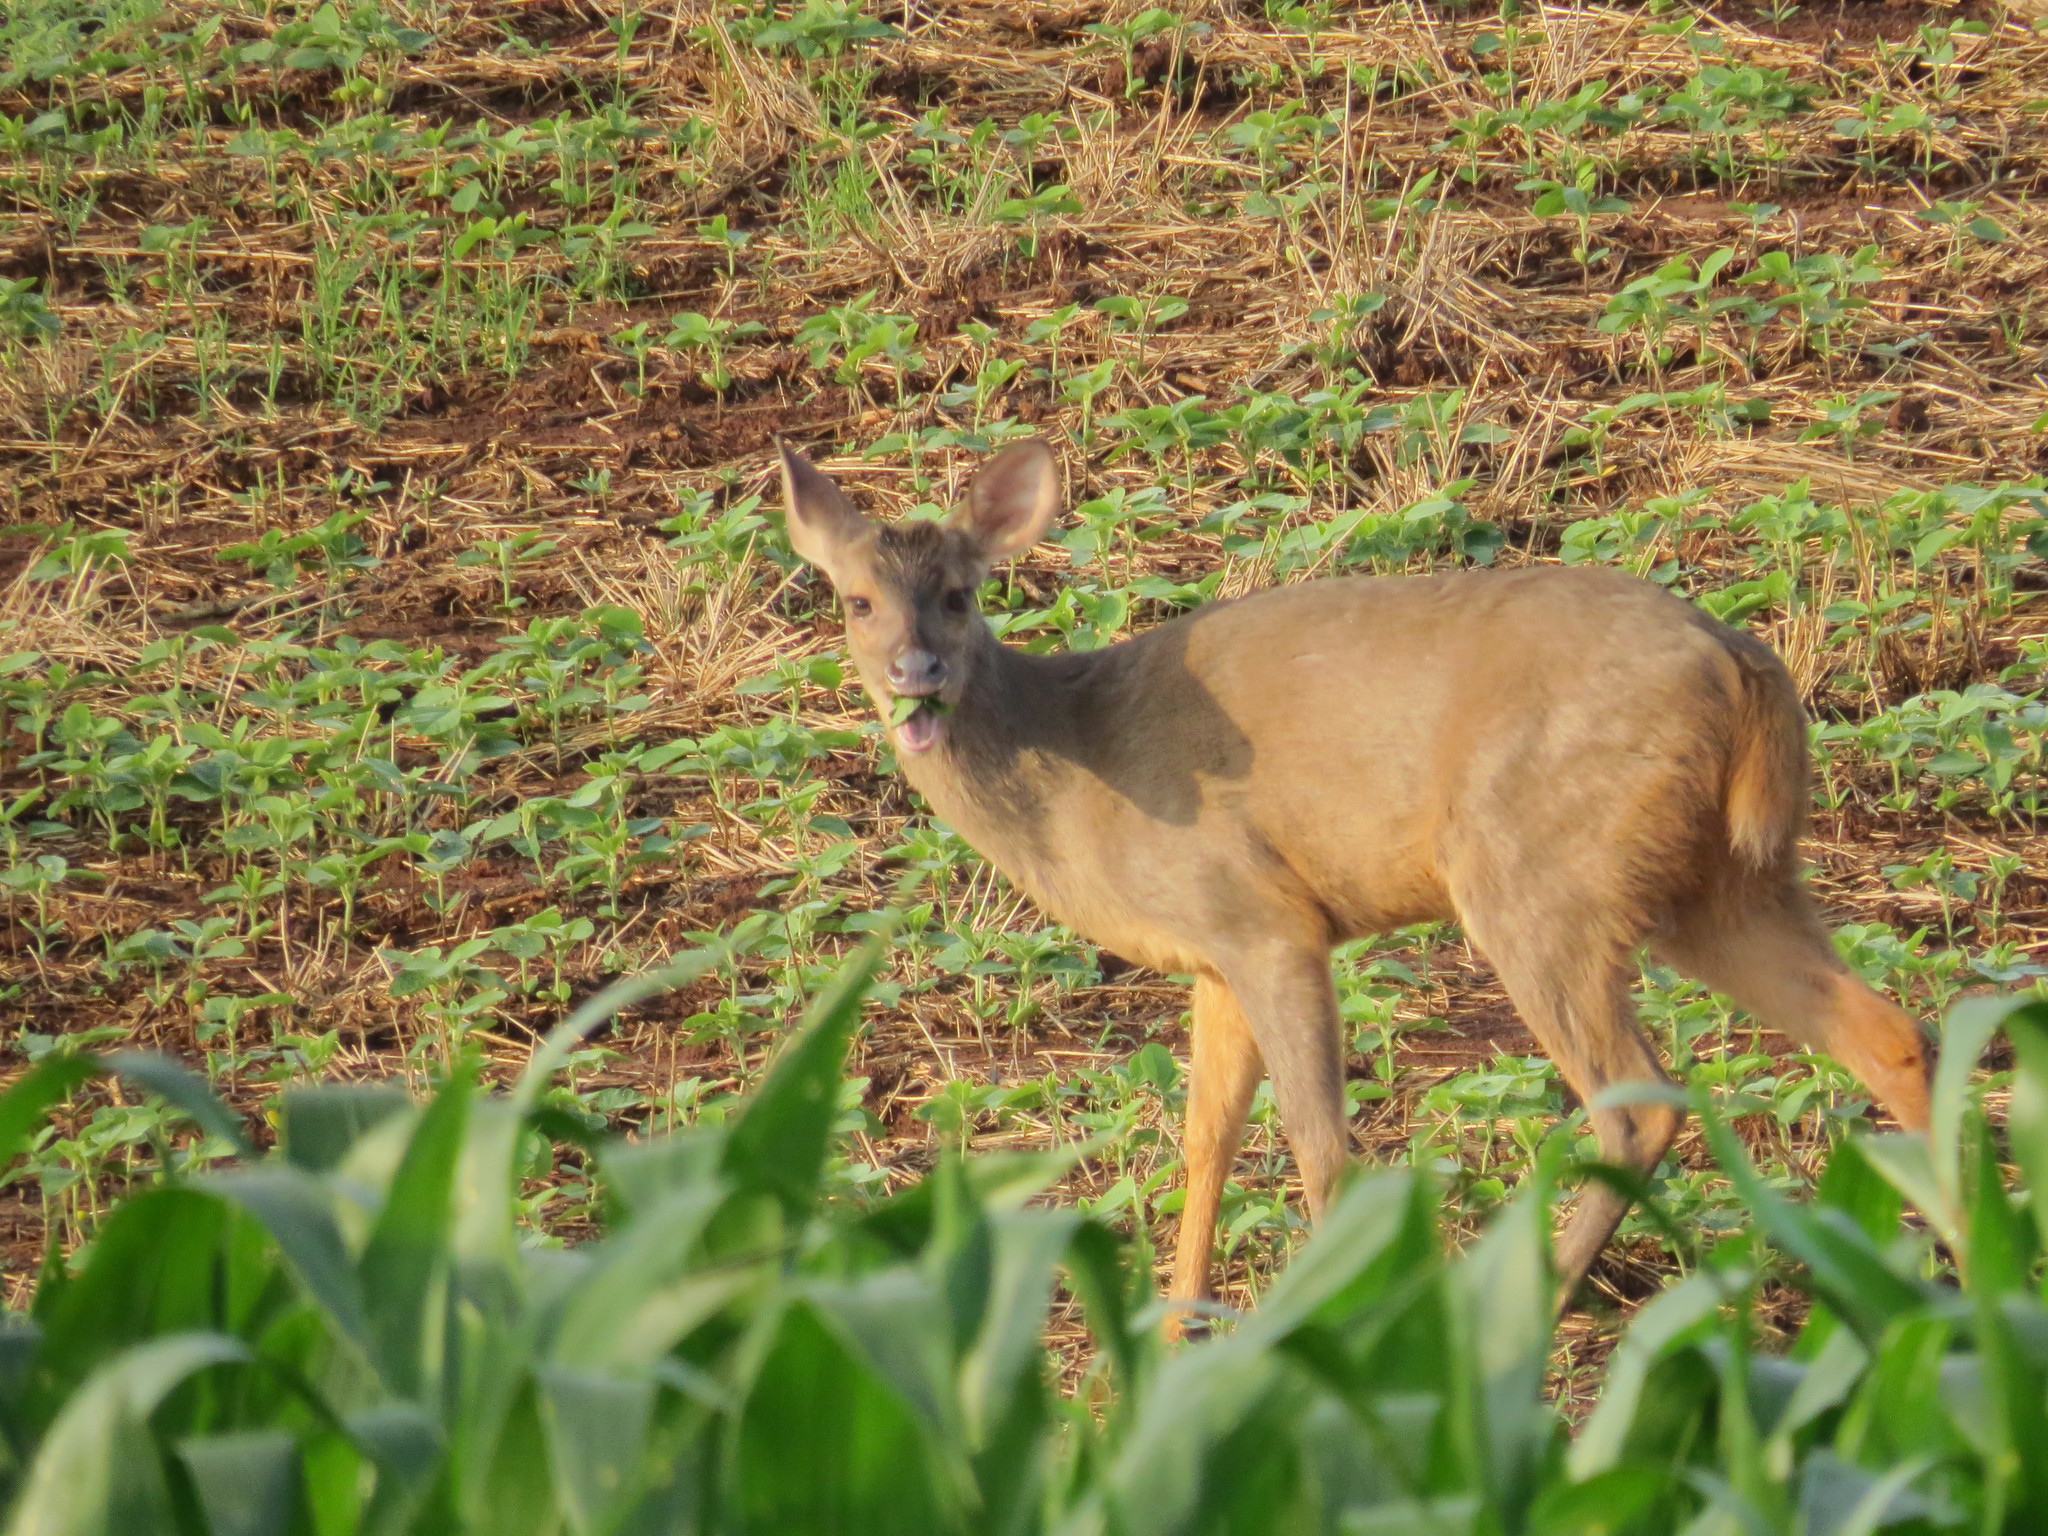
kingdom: Animalia
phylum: Chordata
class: Mammalia
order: Artiodactyla
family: Cervidae
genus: Mazama
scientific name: Mazama gouazoubira
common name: Gray brocket
